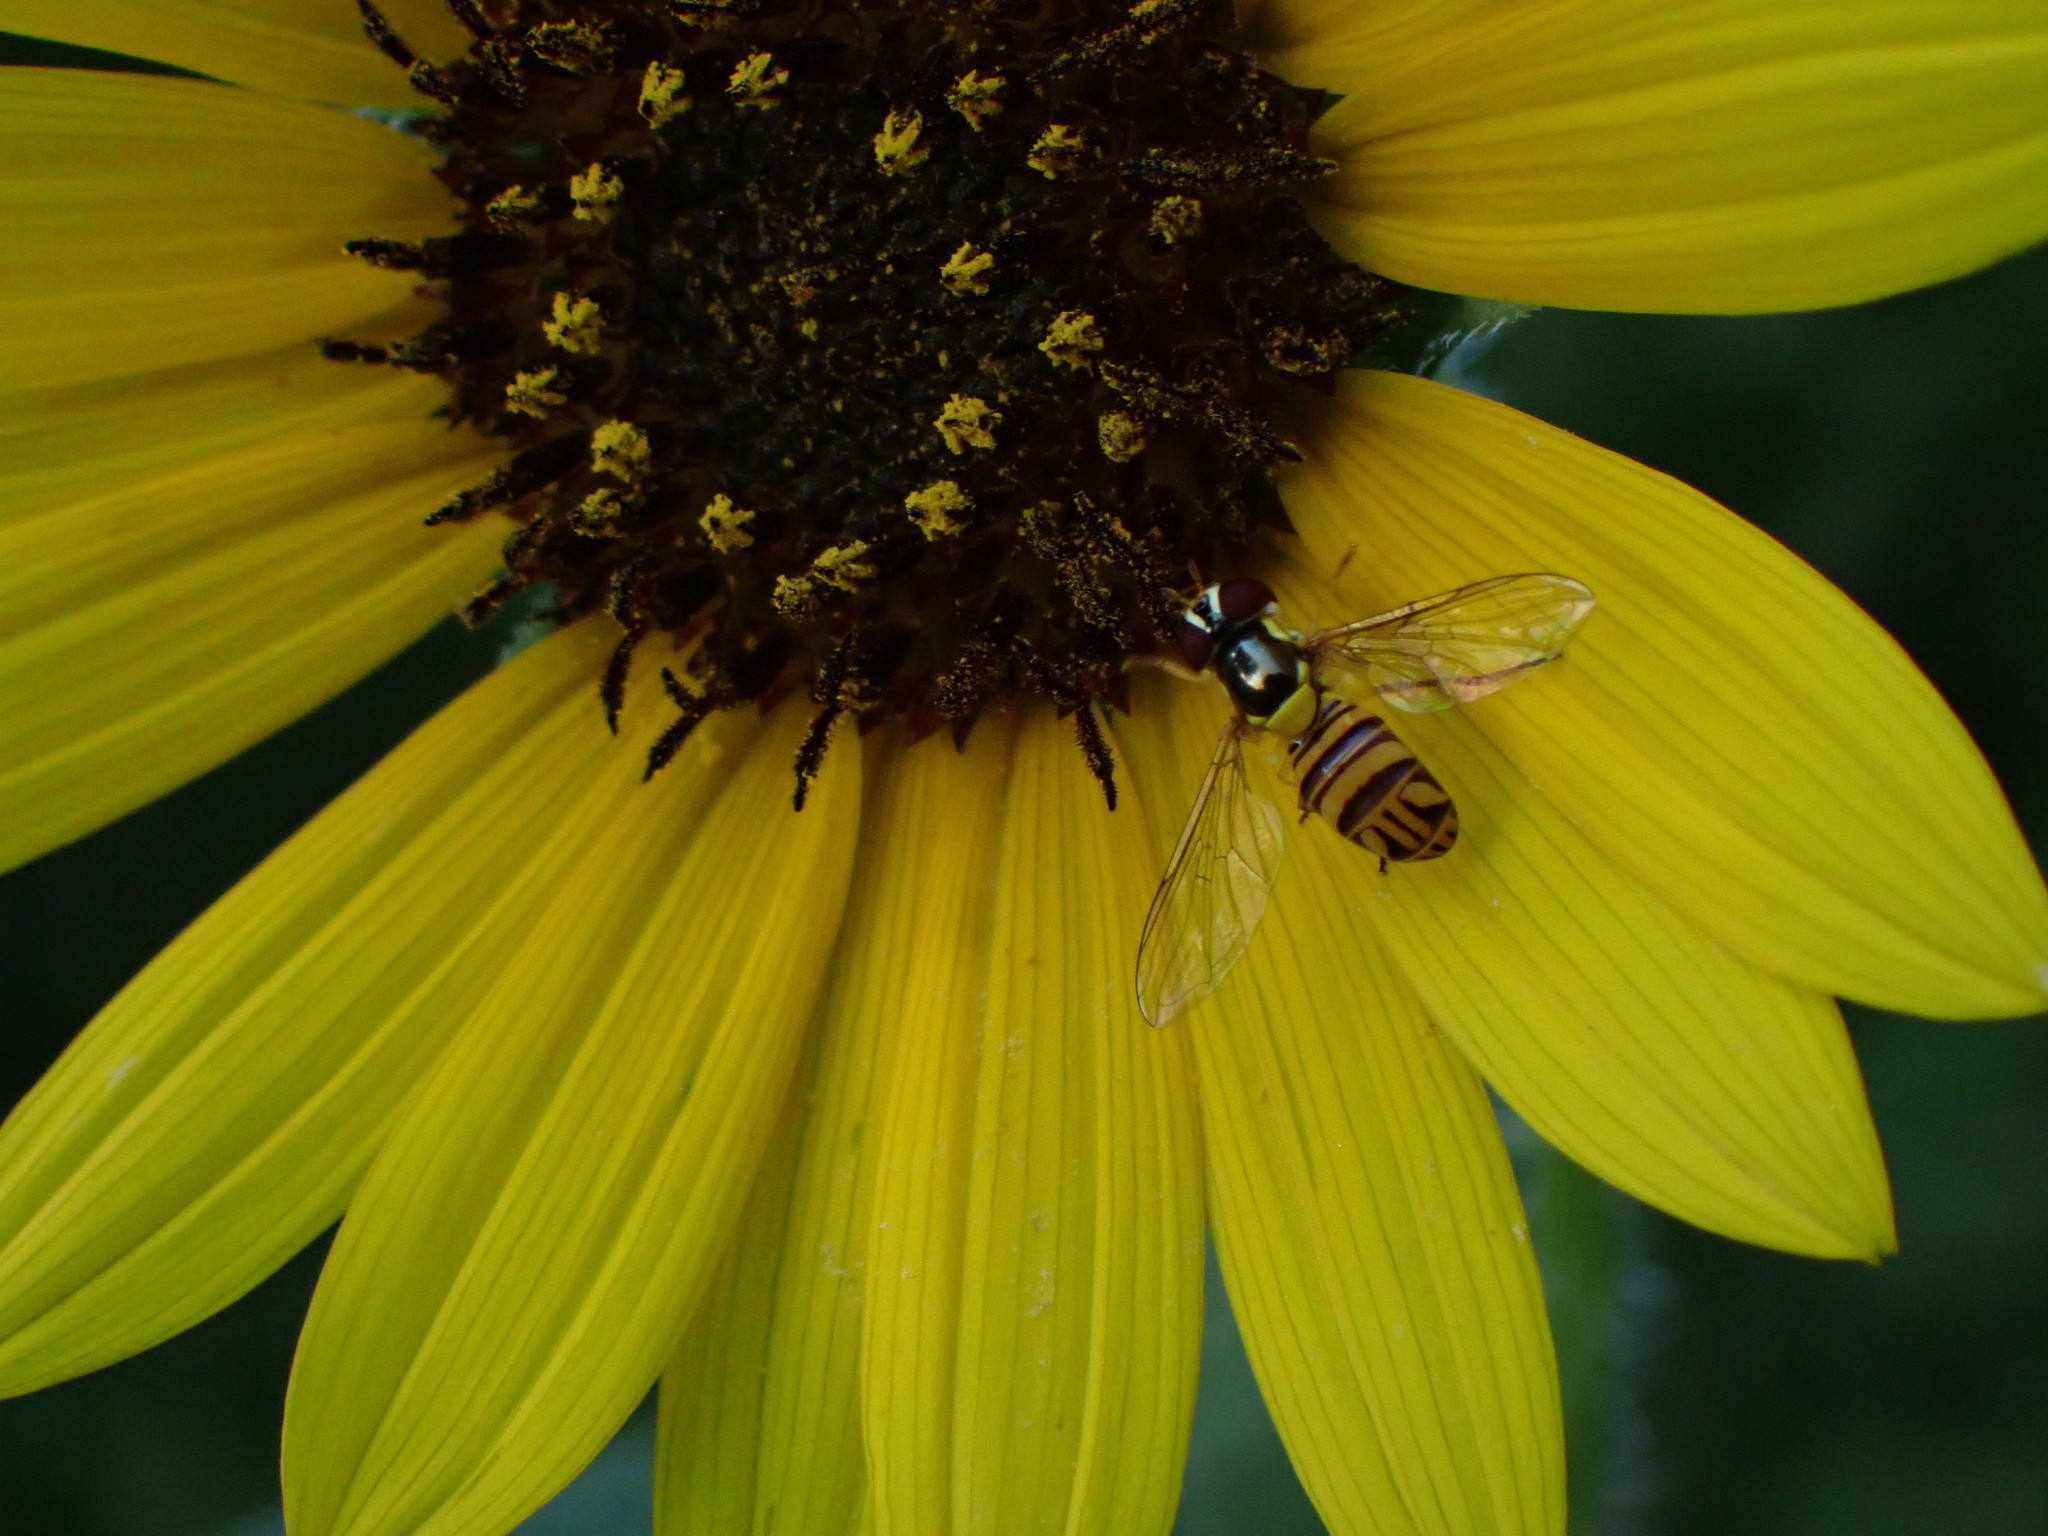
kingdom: Animalia
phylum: Arthropoda
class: Insecta
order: Diptera
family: Syrphidae
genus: Allograpta
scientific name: Allograpta obliqua
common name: Common oblique syrphid
